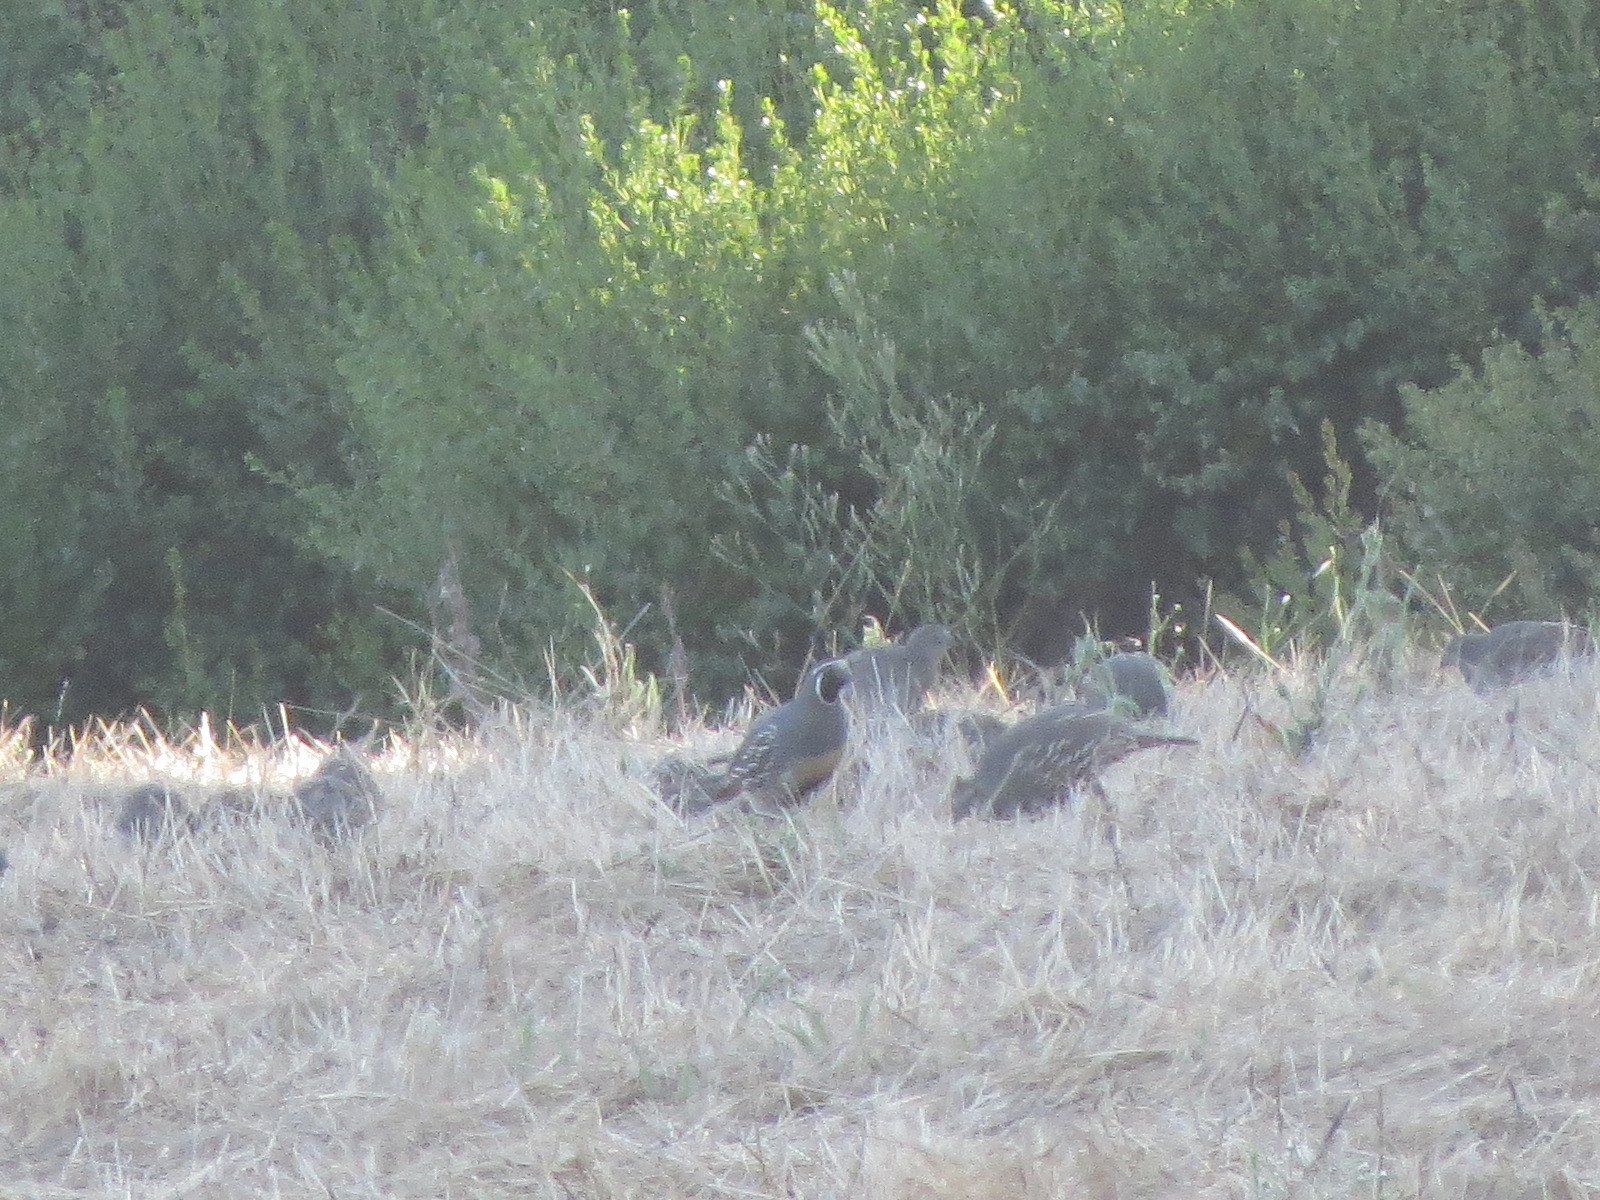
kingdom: Animalia
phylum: Chordata
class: Aves
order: Galliformes
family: Odontophoridae
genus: Callipepla
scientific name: Callipepla californica
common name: California quail
